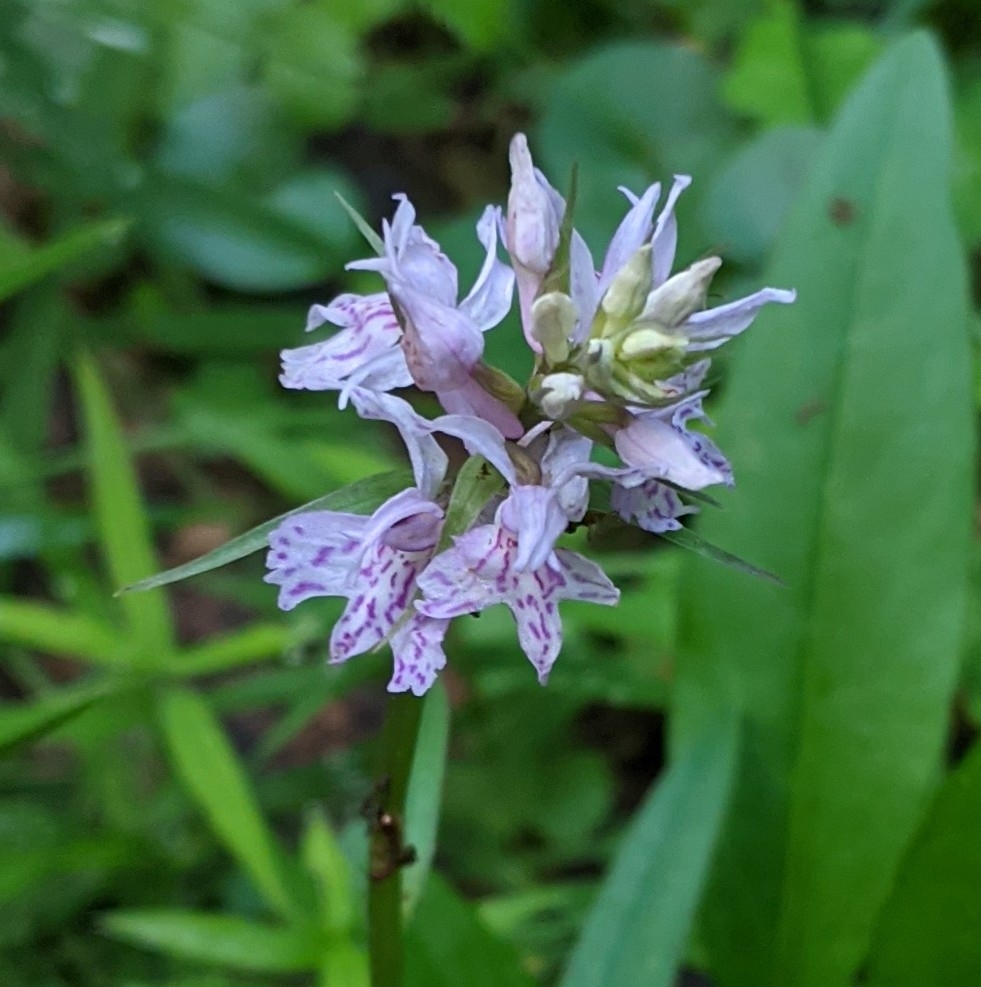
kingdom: Plantae
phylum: Tracheophyta
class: Liliopsida
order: Asparagales
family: Orchidaceae
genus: Dactylorhiza
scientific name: Dactylorhiza maculata
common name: Heath spotted-orchid
